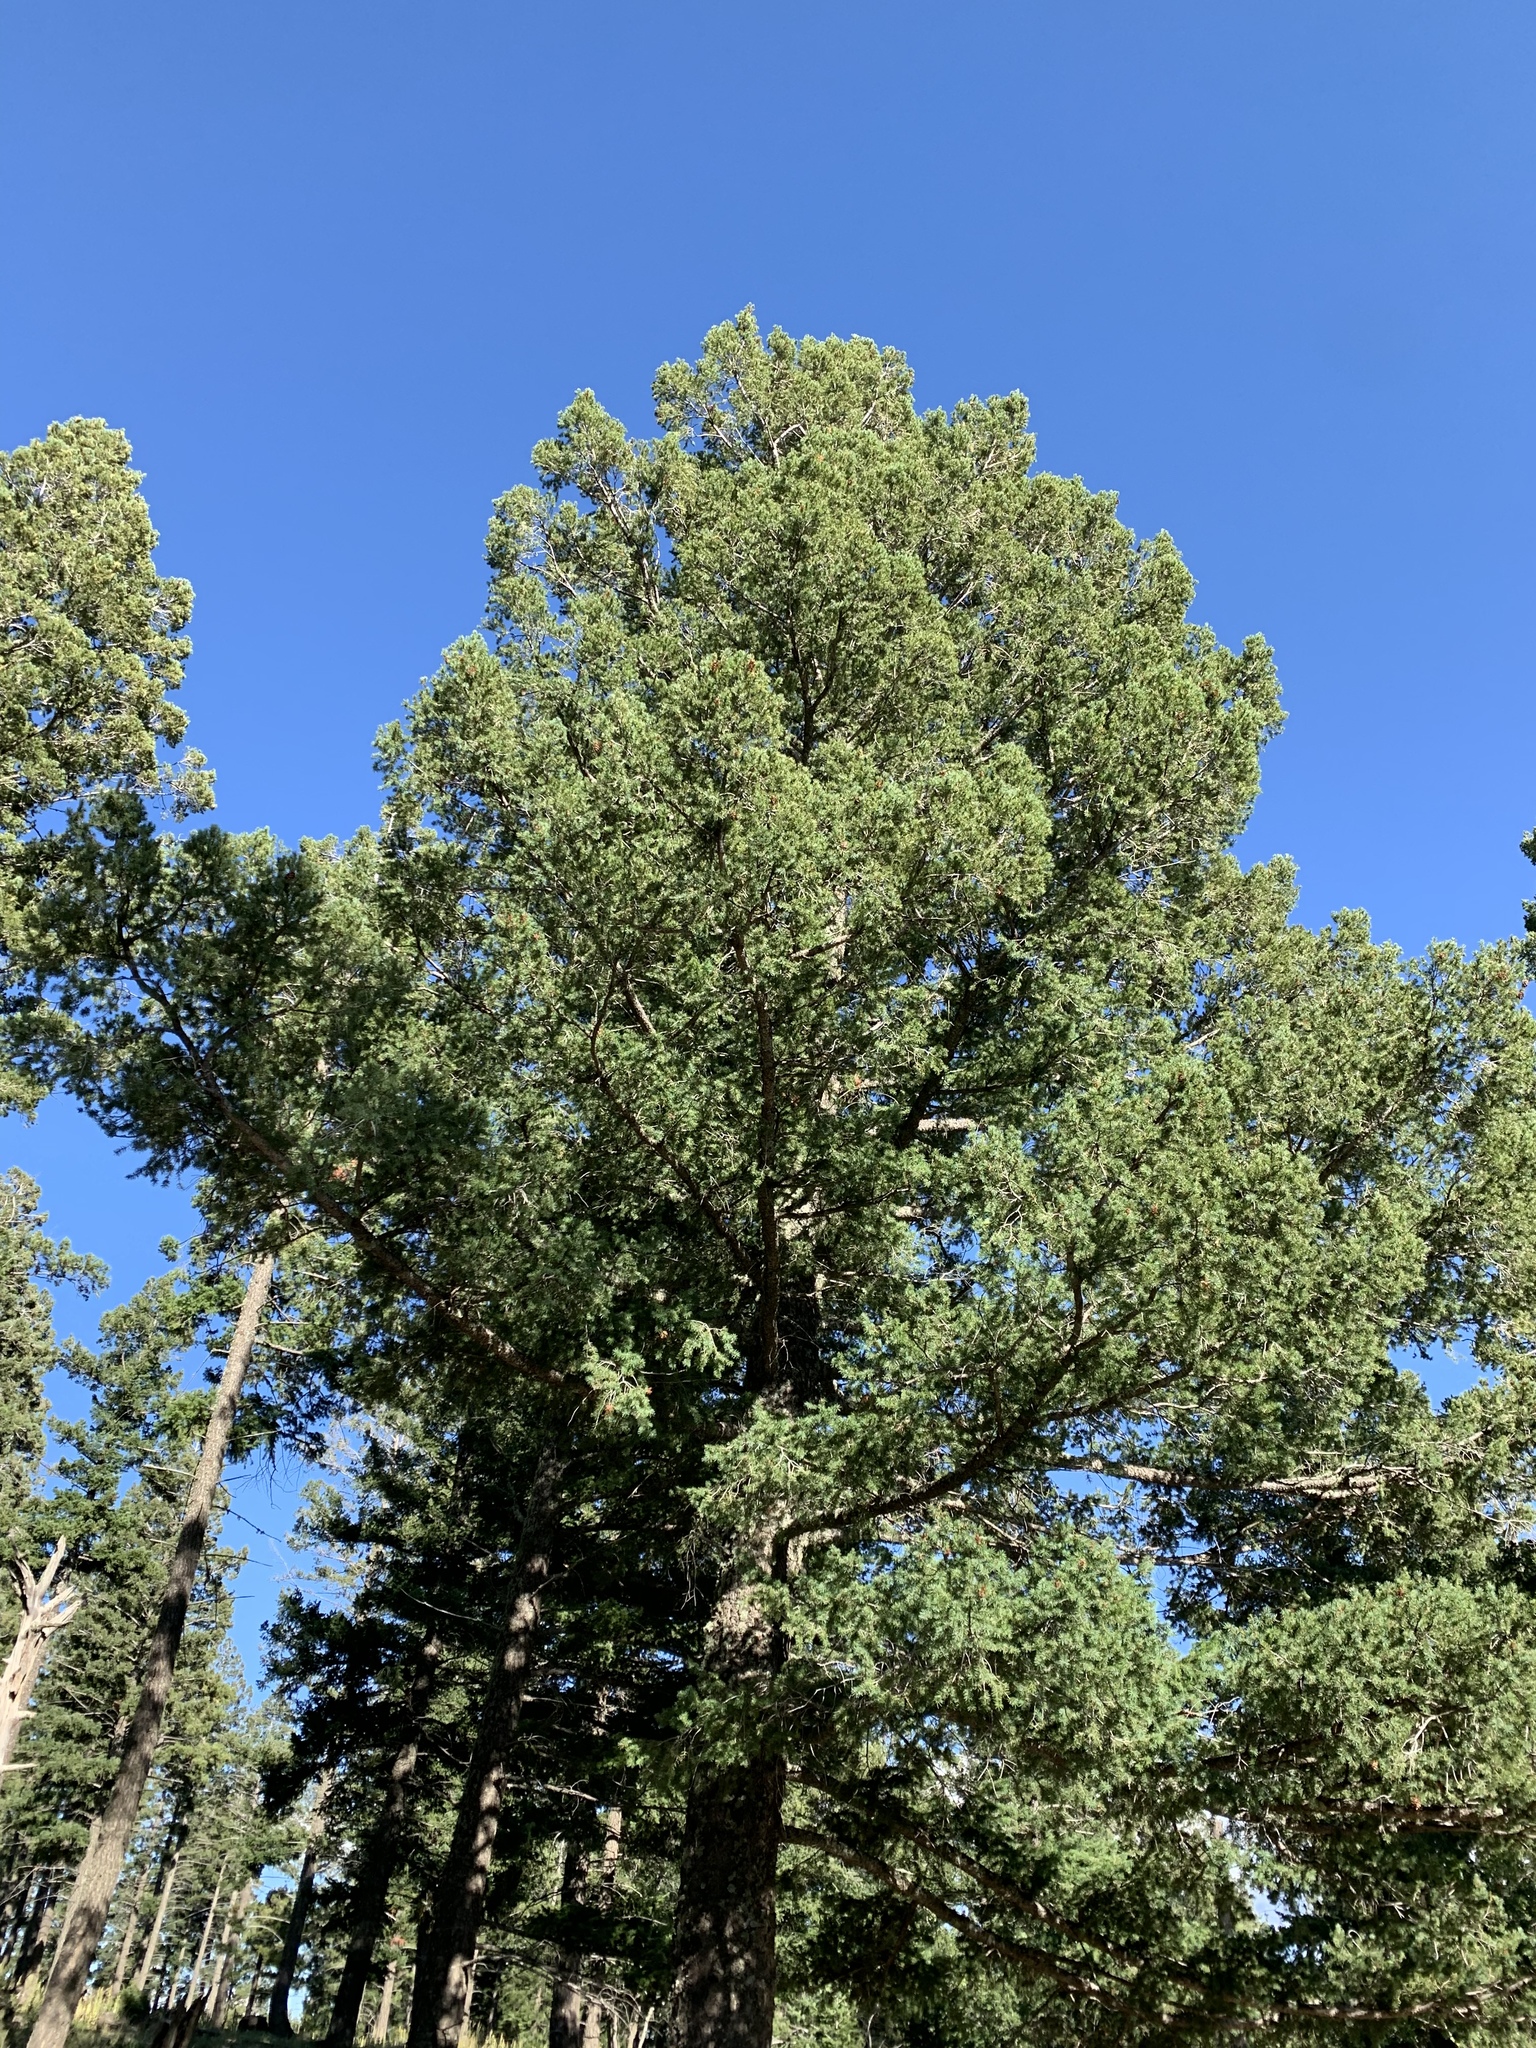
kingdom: Plantae
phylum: Tracheophyta
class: Pinopsida
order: Pinales
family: Pinaceae
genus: Pseudotsuga
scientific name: Pseudotsuga menziesii
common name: Douglas fir
